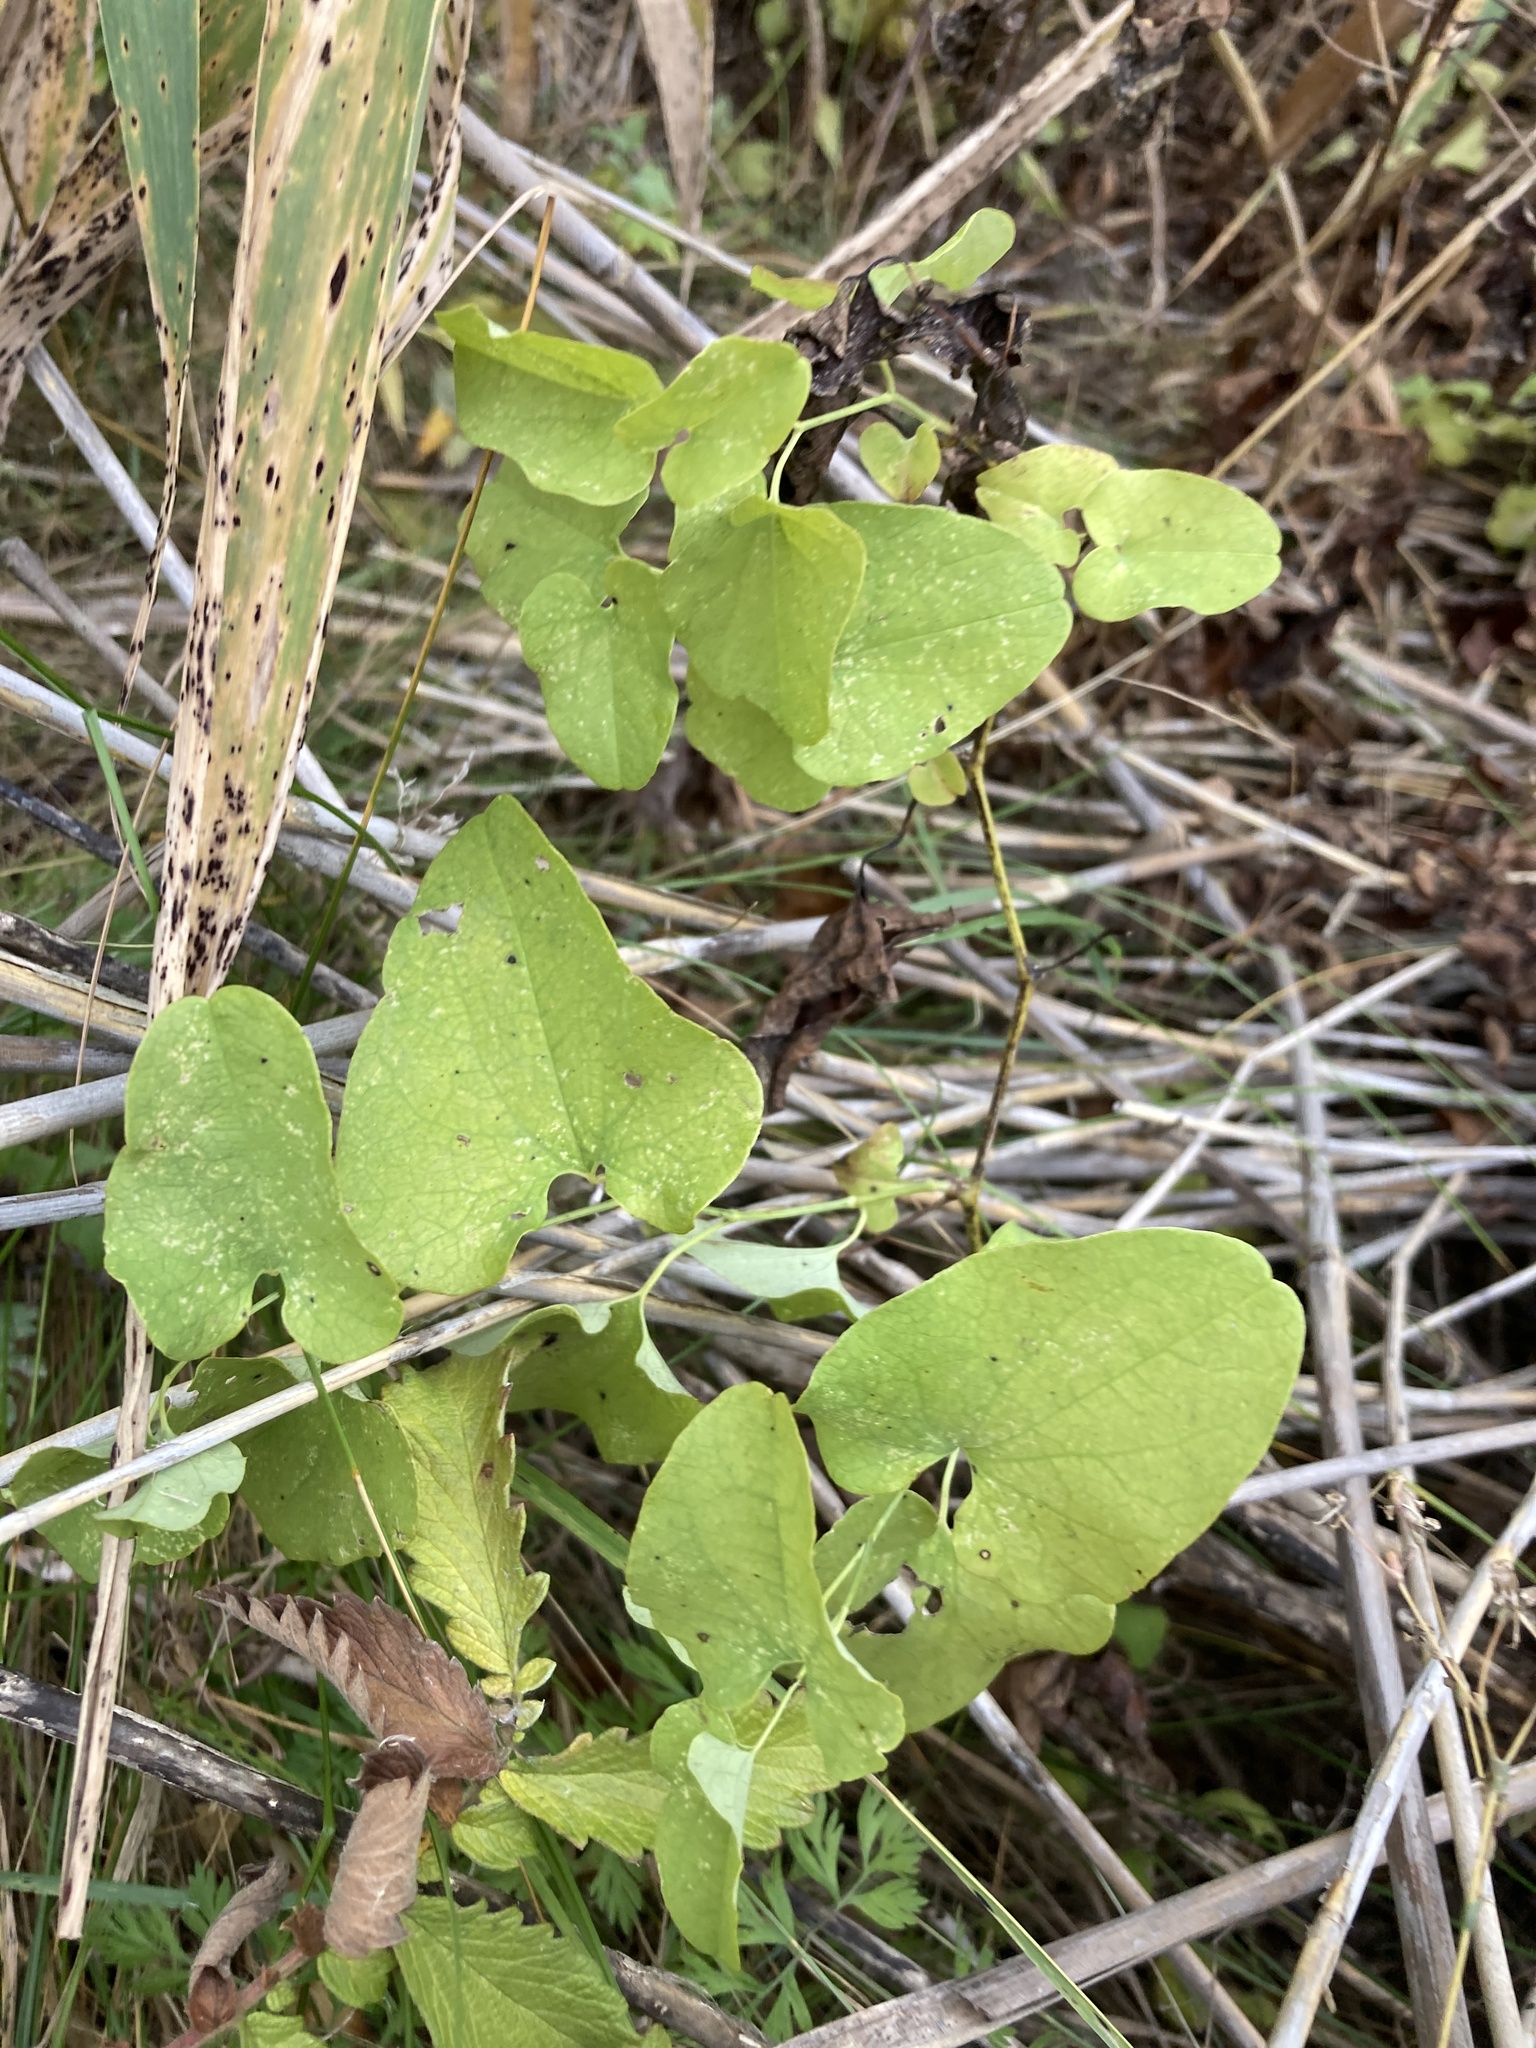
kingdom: Plantae
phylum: Tracheophyta
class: Magnoliopsida
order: Piperales
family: Aristolochiaceae
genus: Aristolochia
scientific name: Aristolochia clematitis
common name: Birthwort
